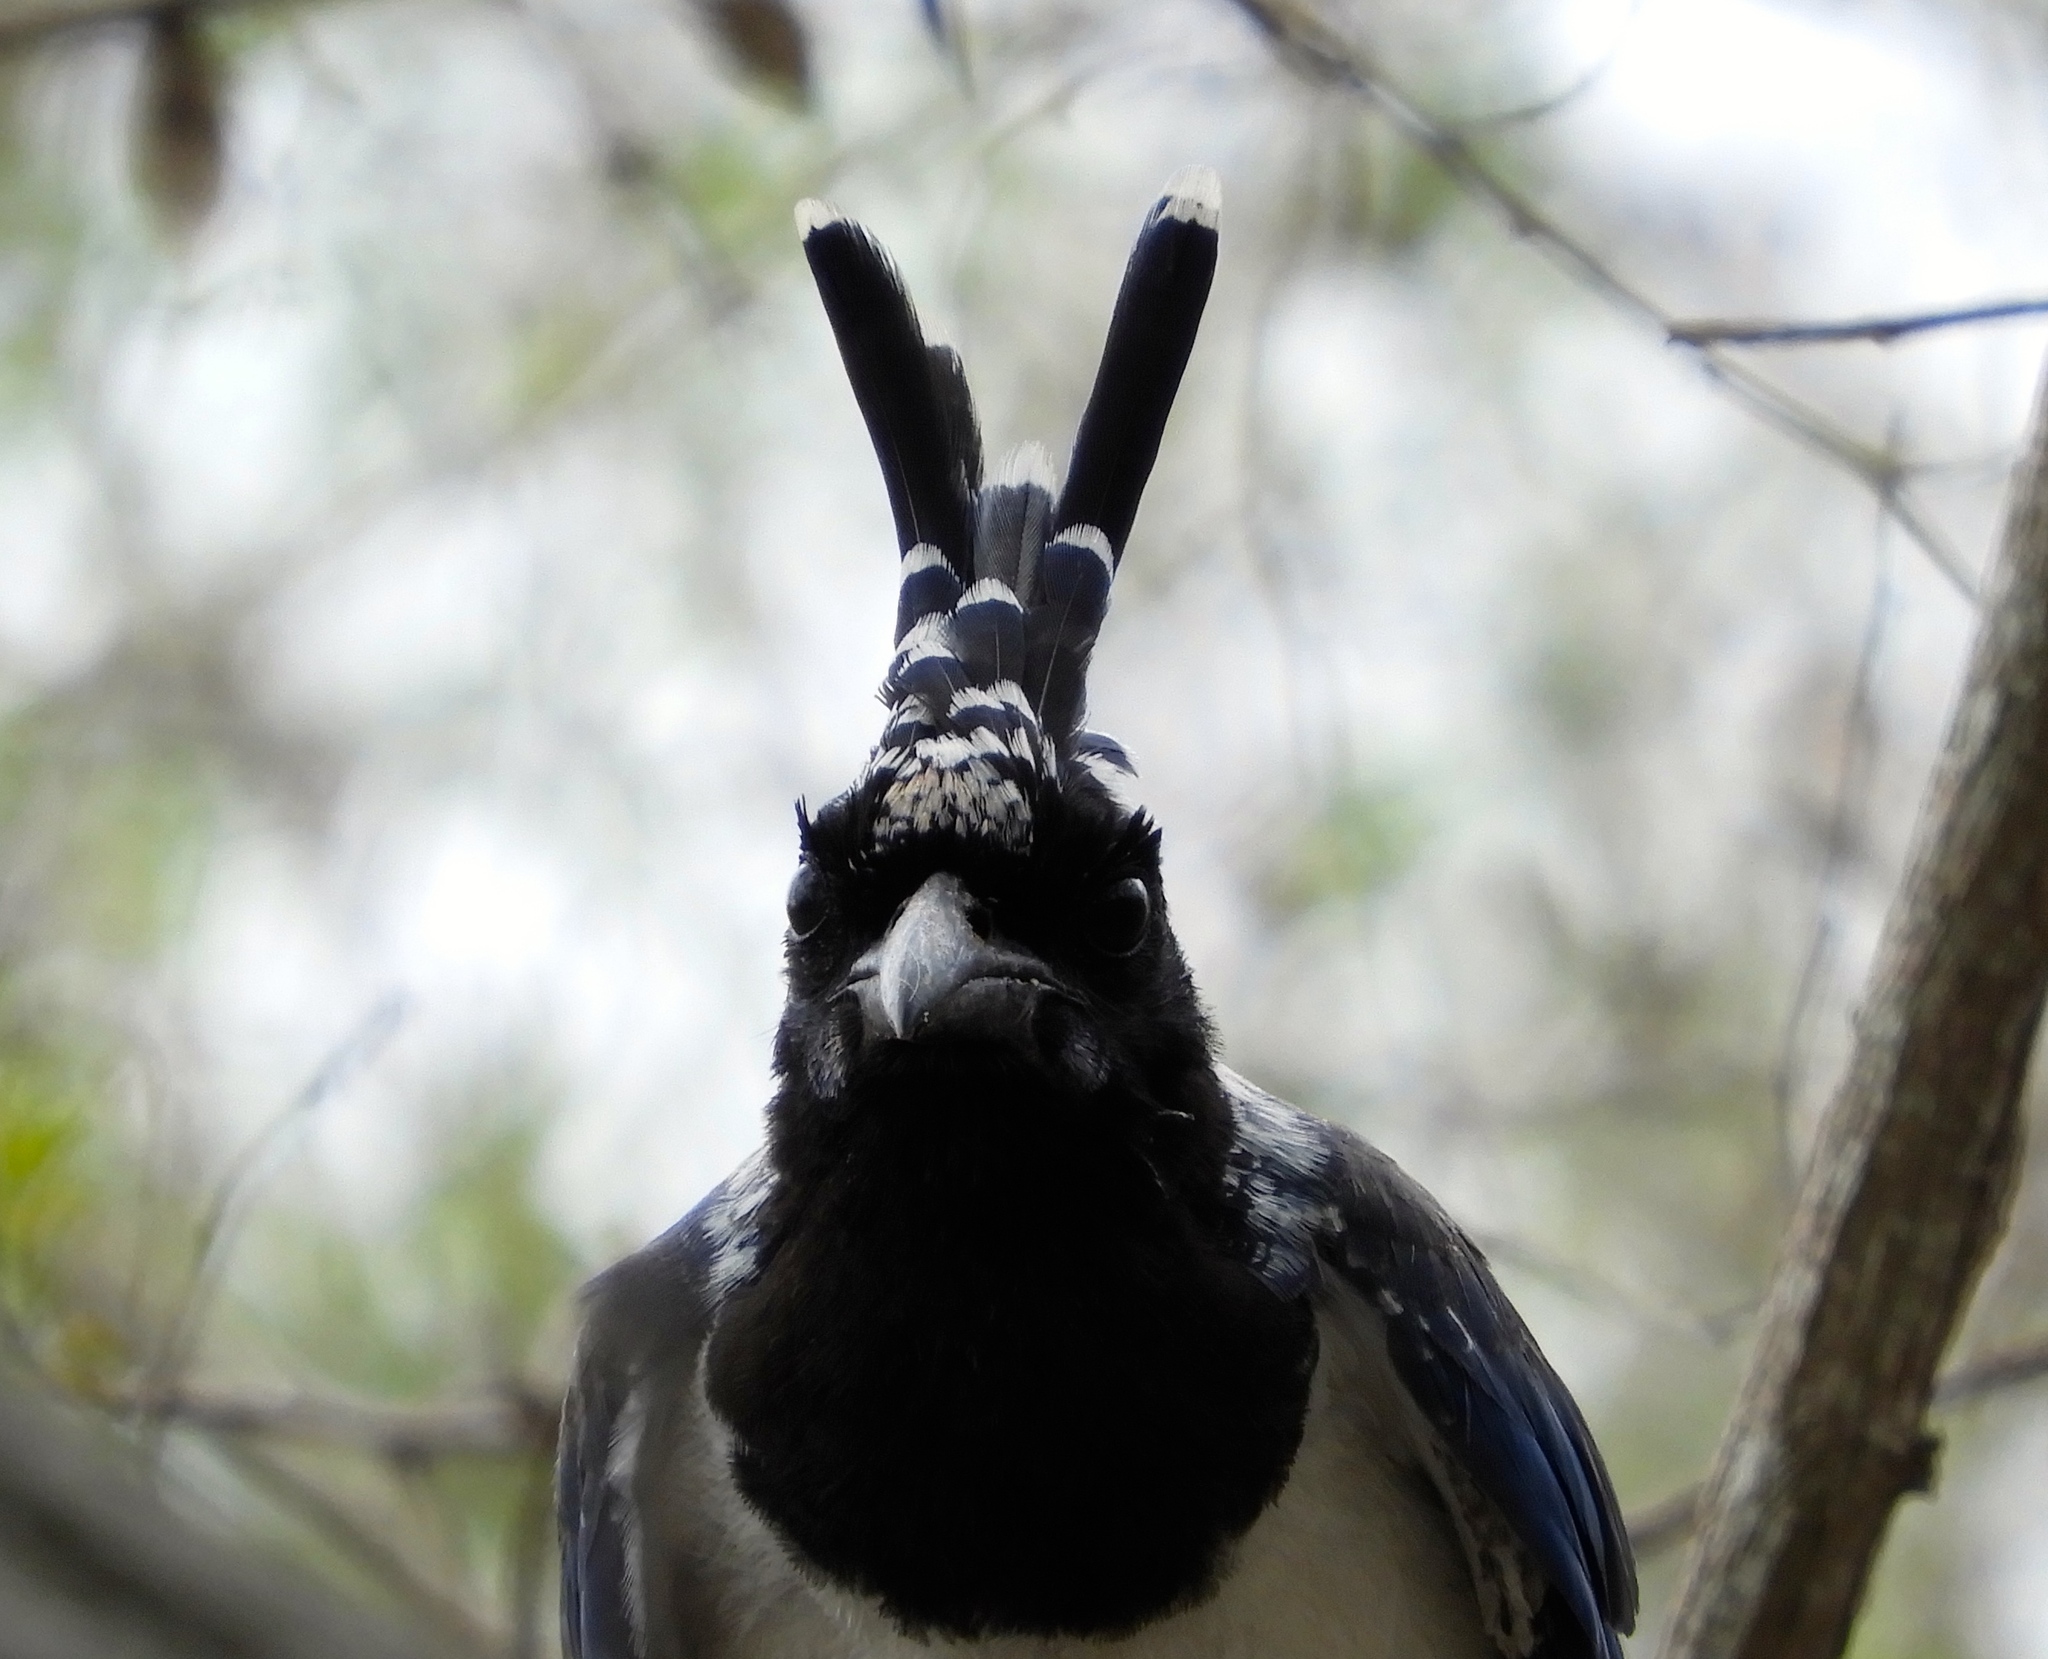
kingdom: Animalia
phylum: Chordata
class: Aves
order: Passeriformes
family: Corvidae
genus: Calocitta
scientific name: Calocitta colliei
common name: Black-throated magpie-jay
